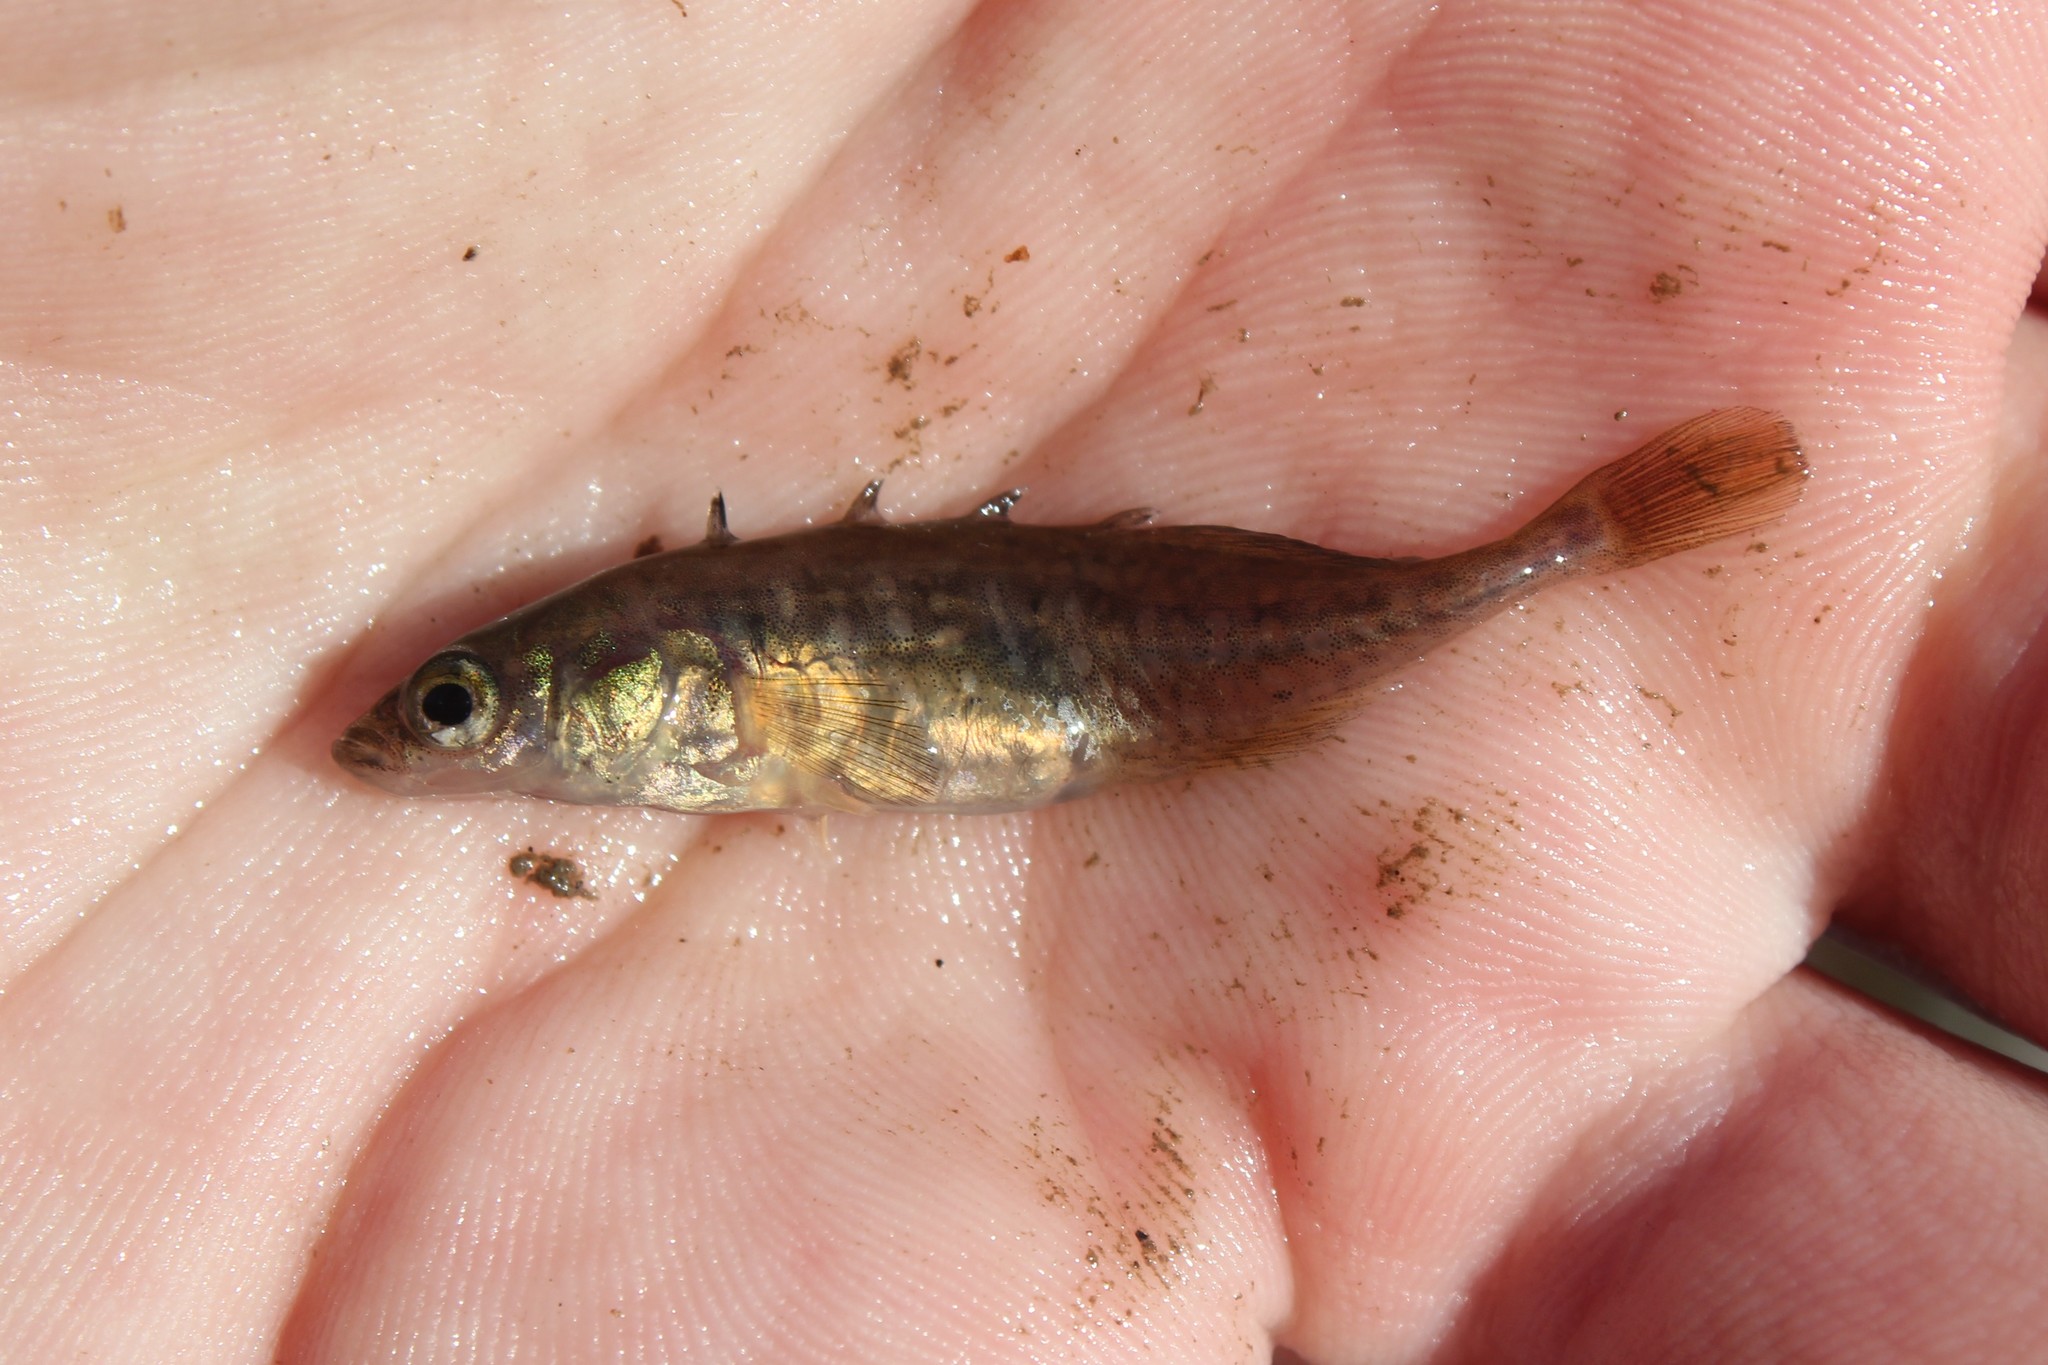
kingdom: Animalia
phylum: Chordata
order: Gasterosteiformes
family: Gasterosteidae
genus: Culaea
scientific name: Culaea inconstans
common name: Brook stickleback
